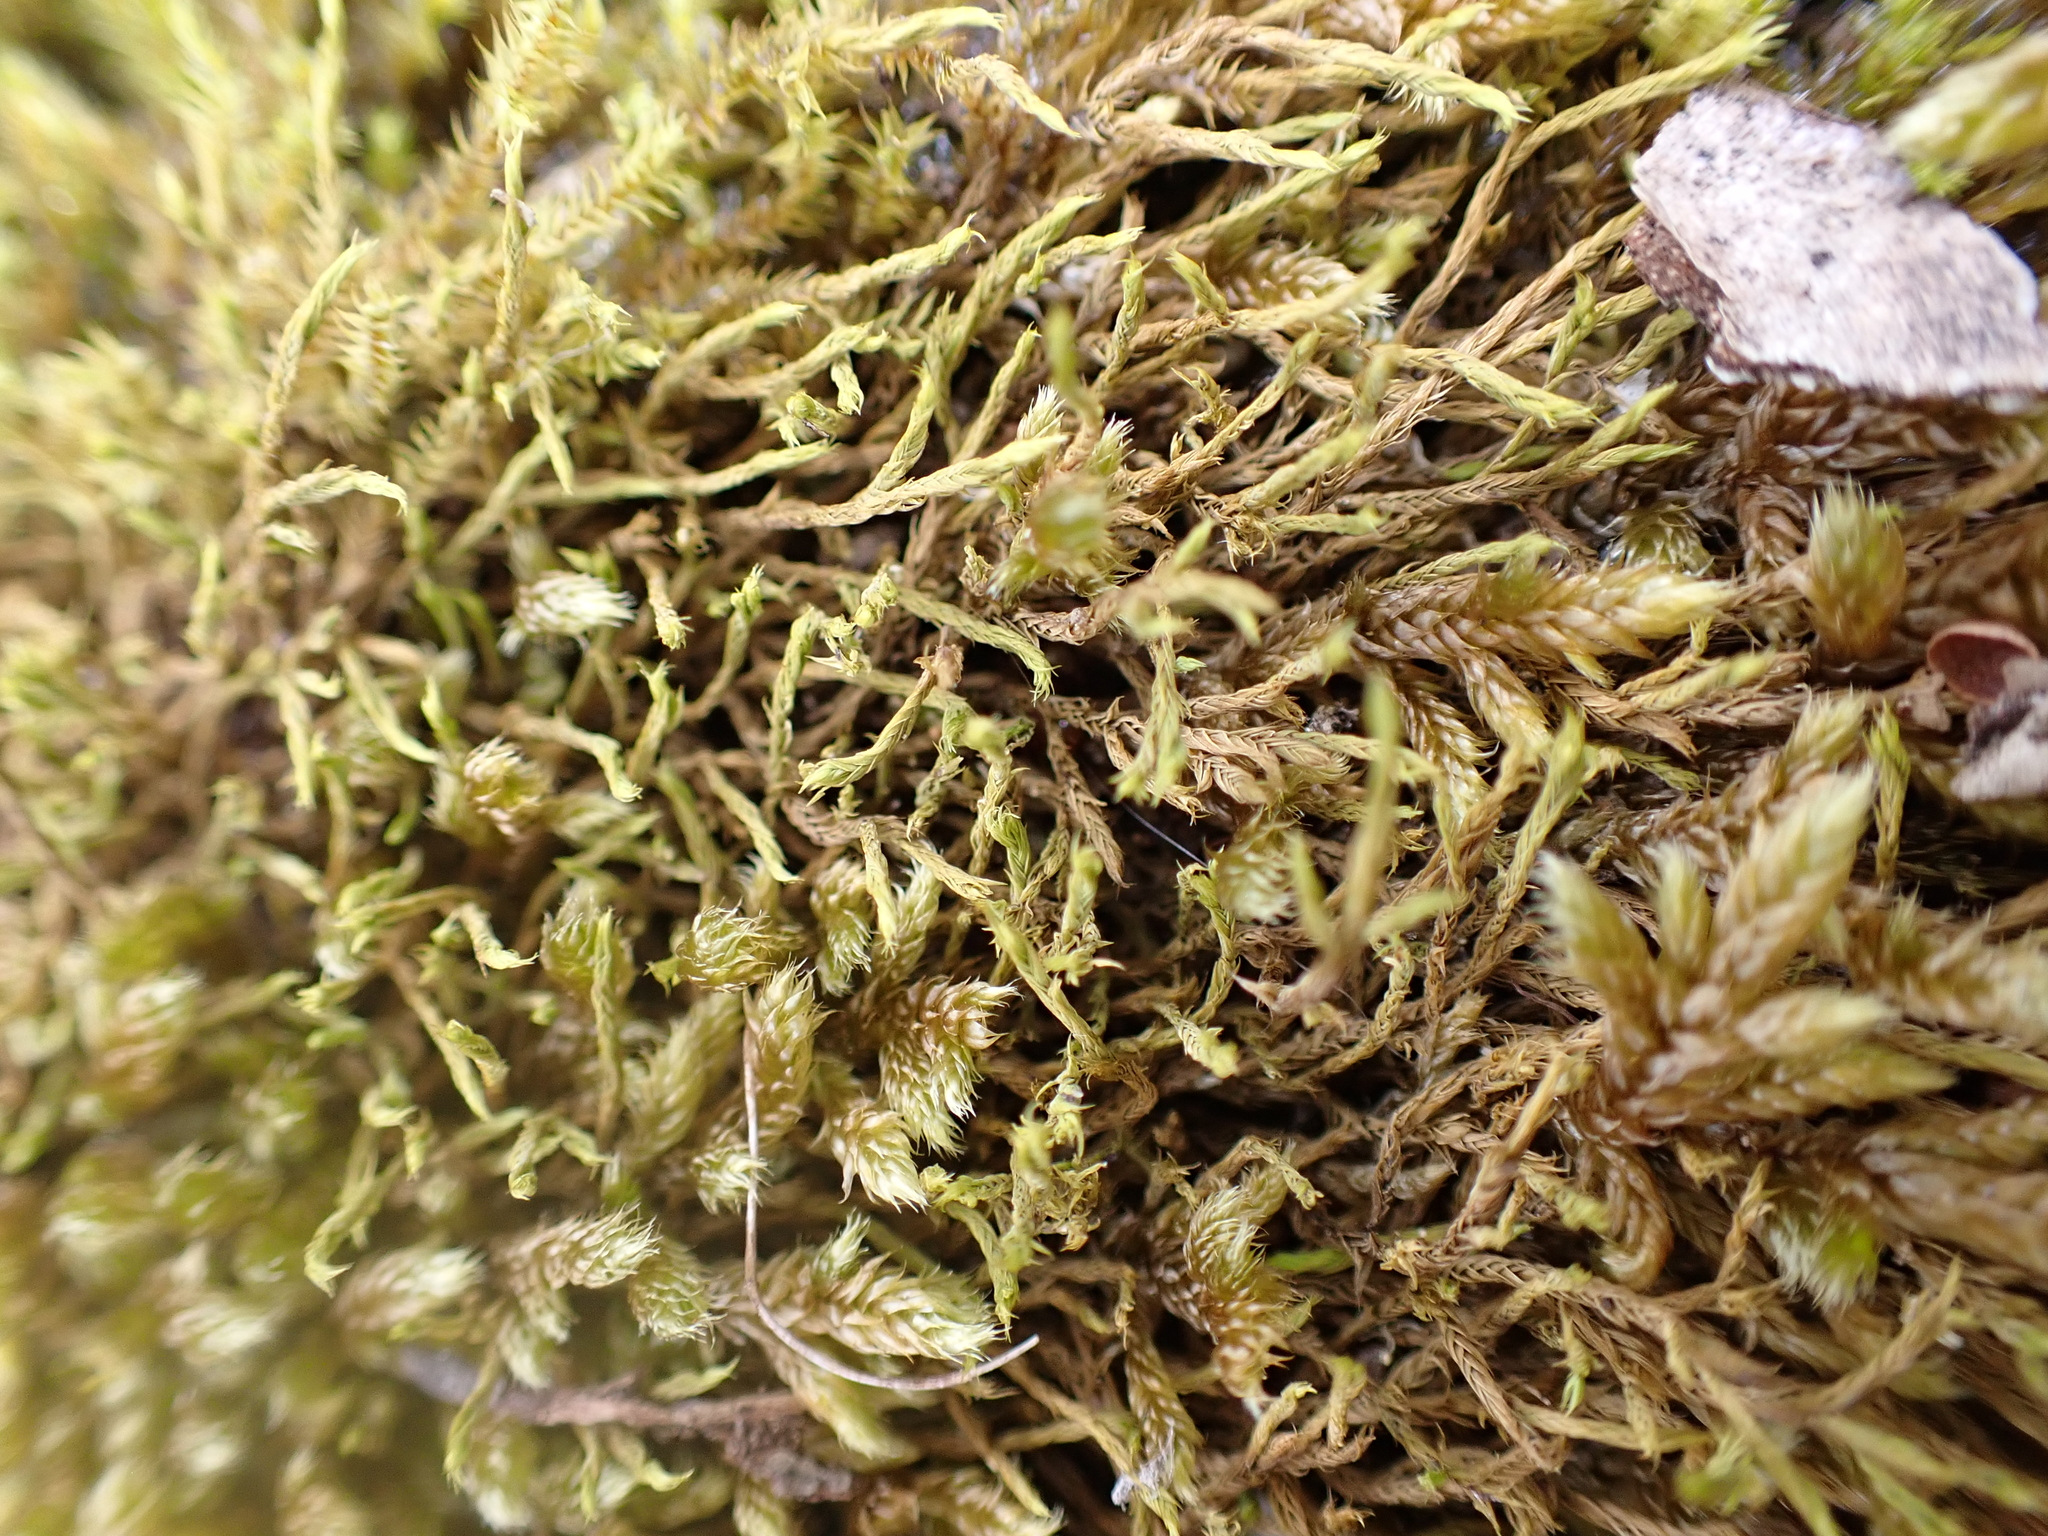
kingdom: Plantae
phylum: Bryophyta
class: Bryopsida
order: Pottiales
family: Pottiaceae
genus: Triquetrella
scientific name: Triquetrella papillata
